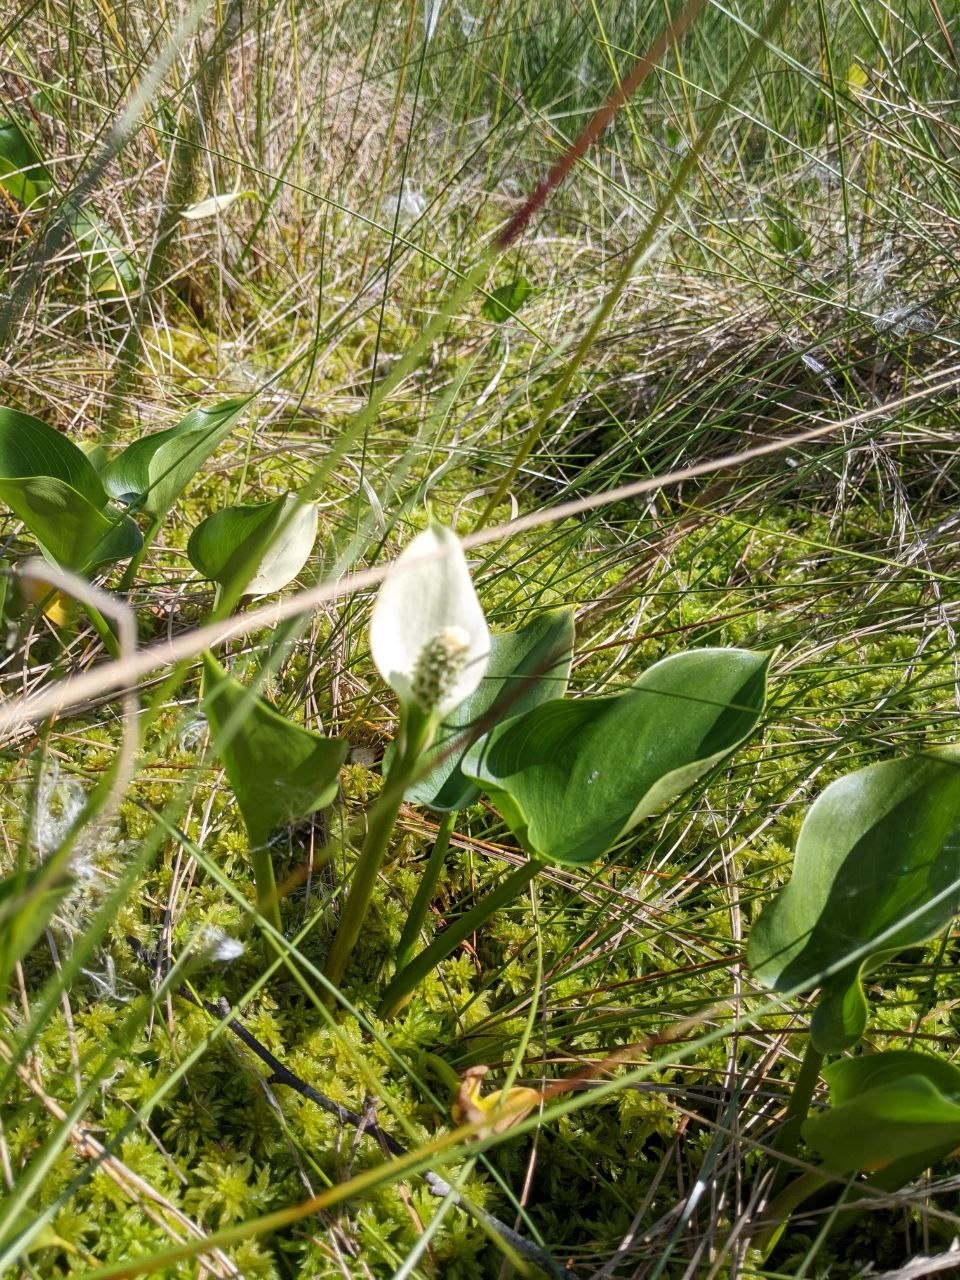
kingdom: Plantae
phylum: Tracheophyta
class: Liliopsida
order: Alismatales
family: Araceae
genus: Calla
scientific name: Calla palustris
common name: Bog arum
